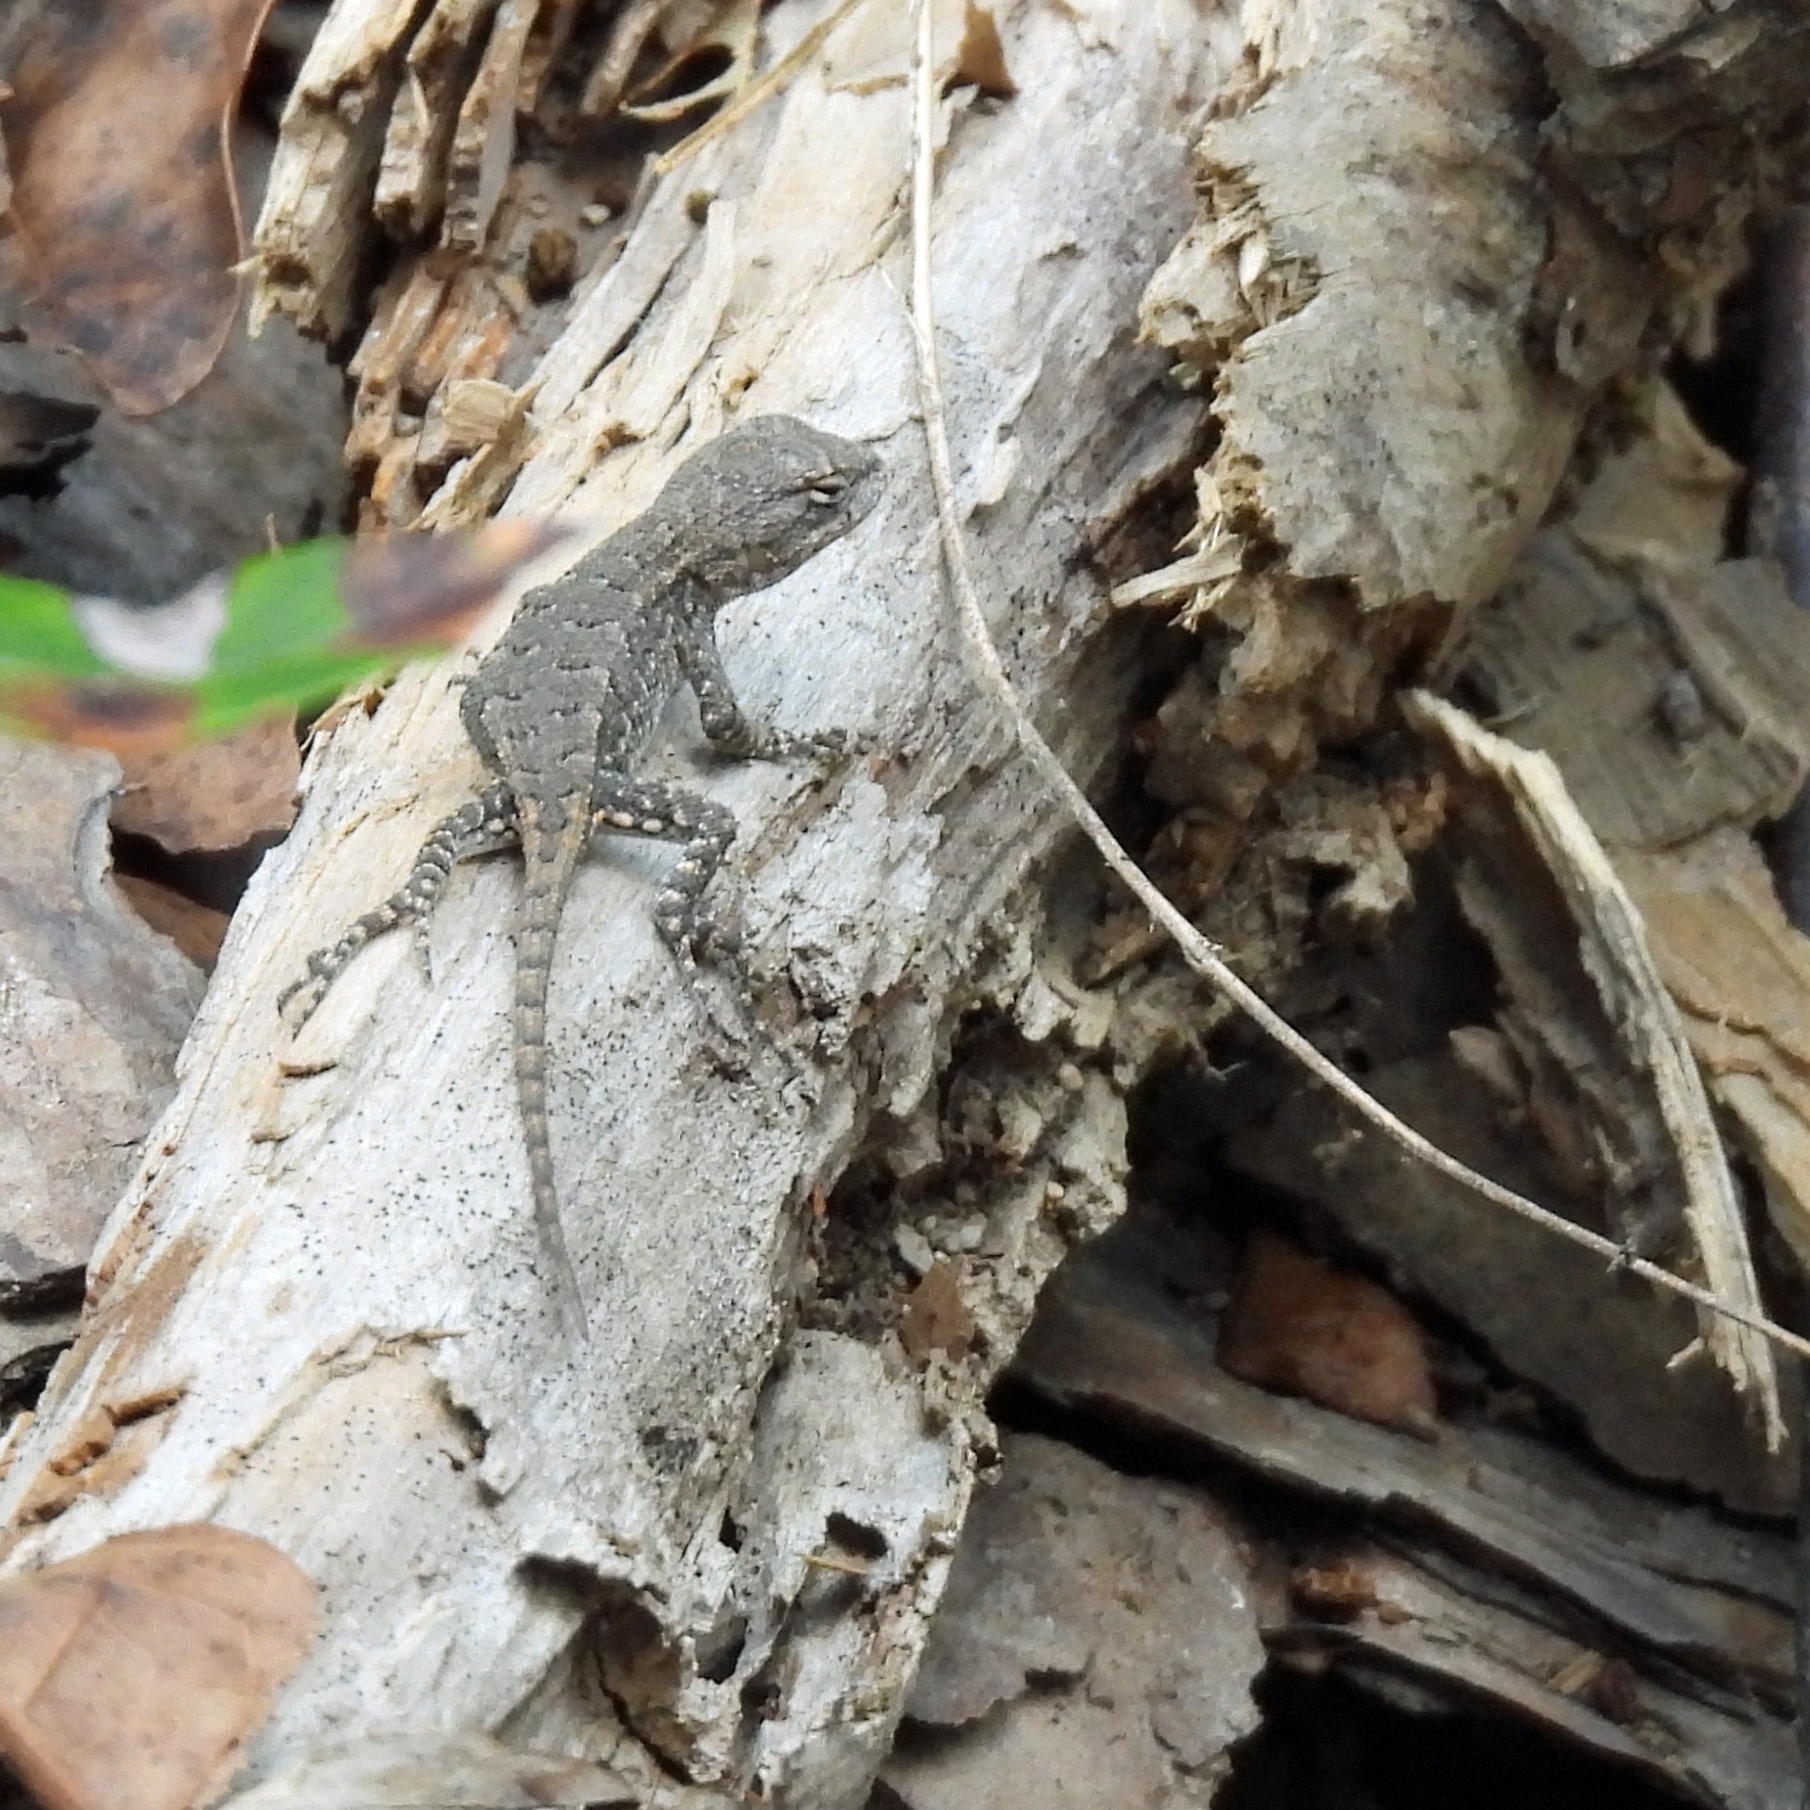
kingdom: Animalia
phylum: Chordata
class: Squamata
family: Phrynosomatidae
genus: Sceloporus
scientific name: Sceloporus consobrinus
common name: Southern prairie lizard
